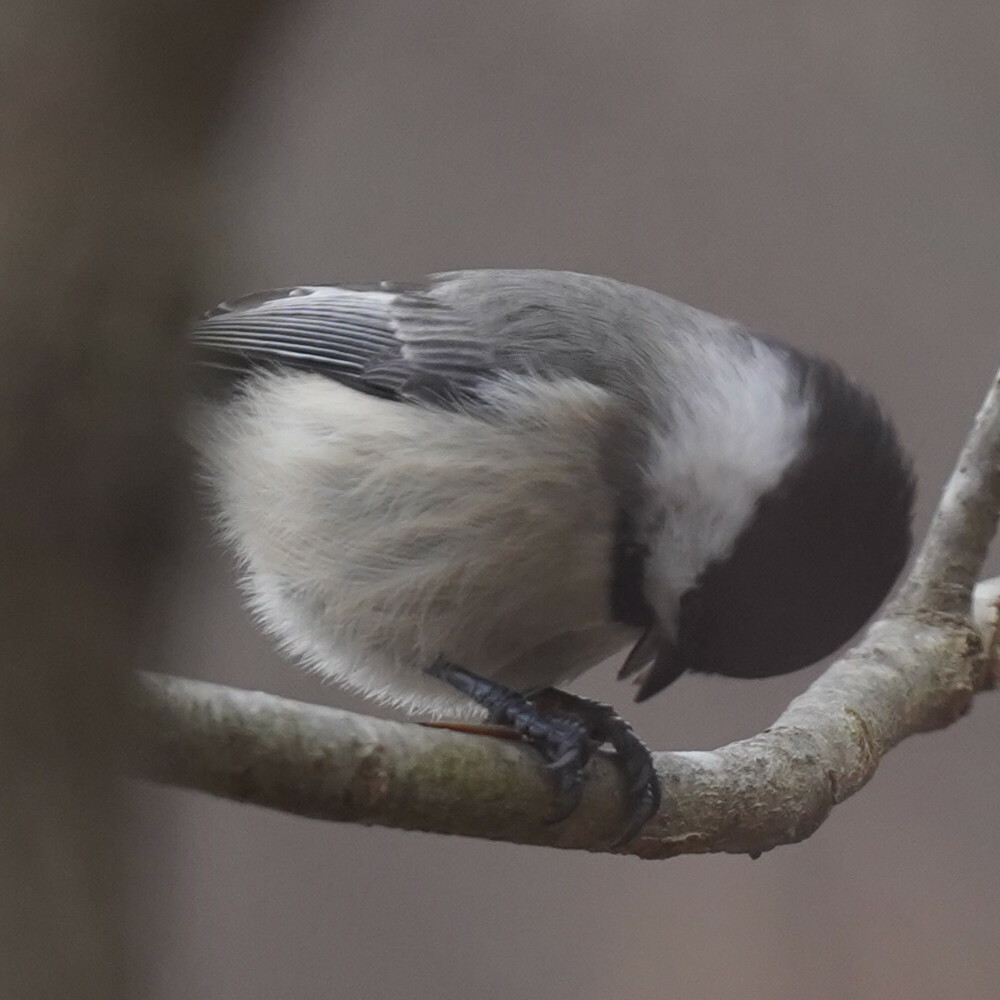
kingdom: Animalia
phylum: Chordata
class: Aves
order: Passeriformes
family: Paridae
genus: Poecile
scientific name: Poecile carolinensis
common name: Carolina chickadee
